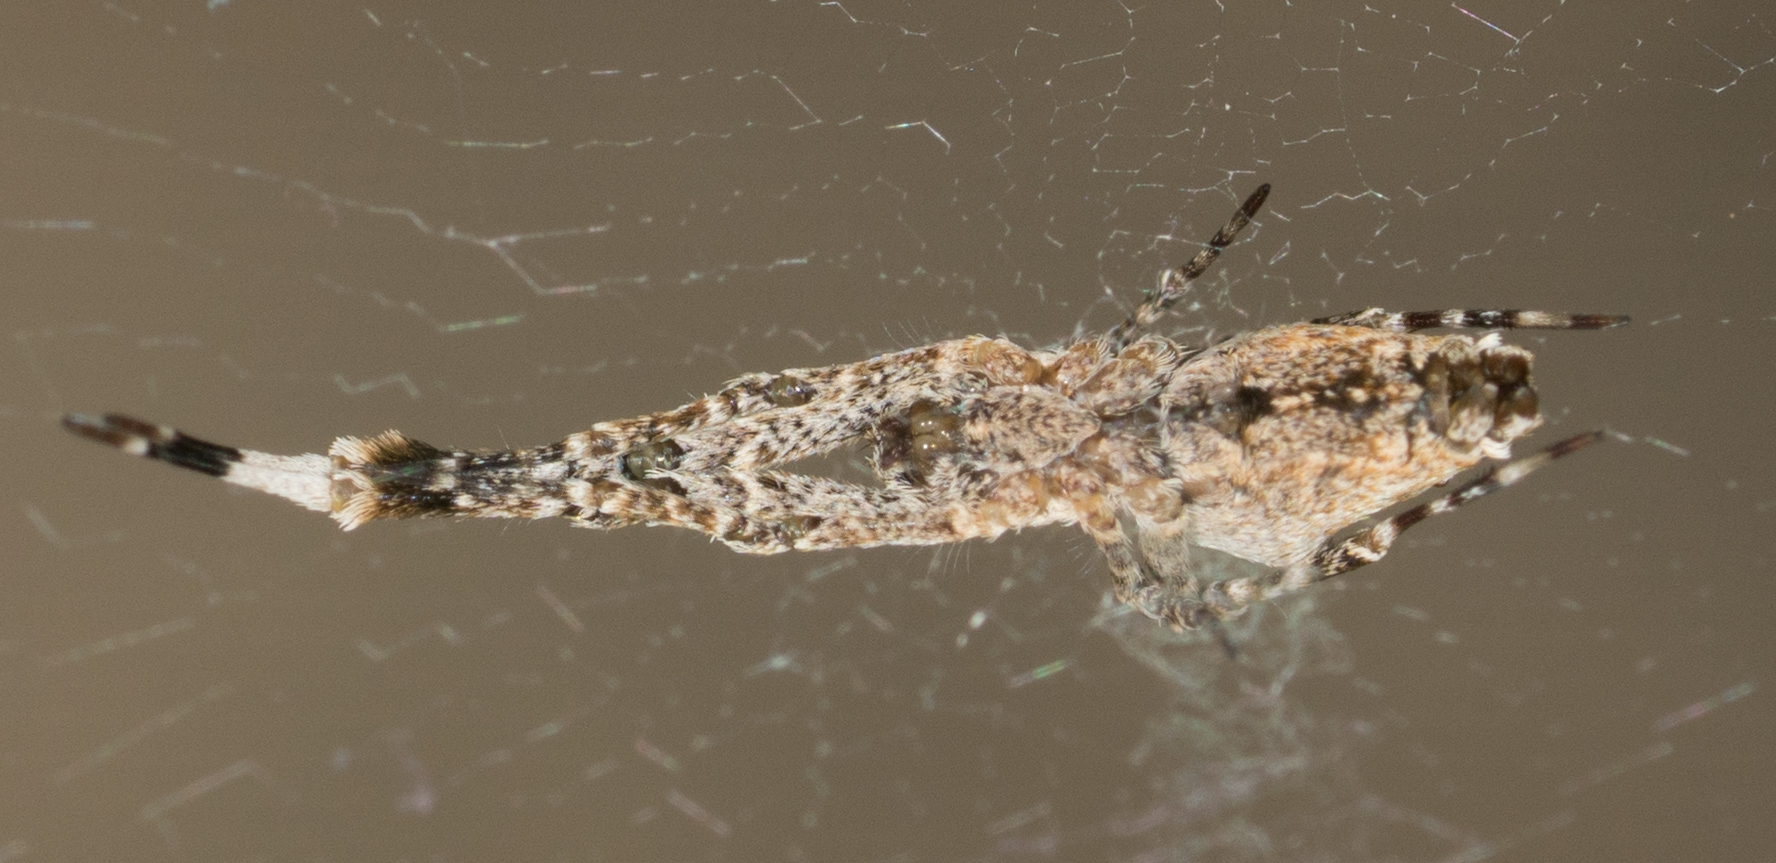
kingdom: Animalia
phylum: Arthropoda
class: Arachnida
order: Araneae
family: Uloboridae
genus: Uloborus
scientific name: Uloborus diversus
